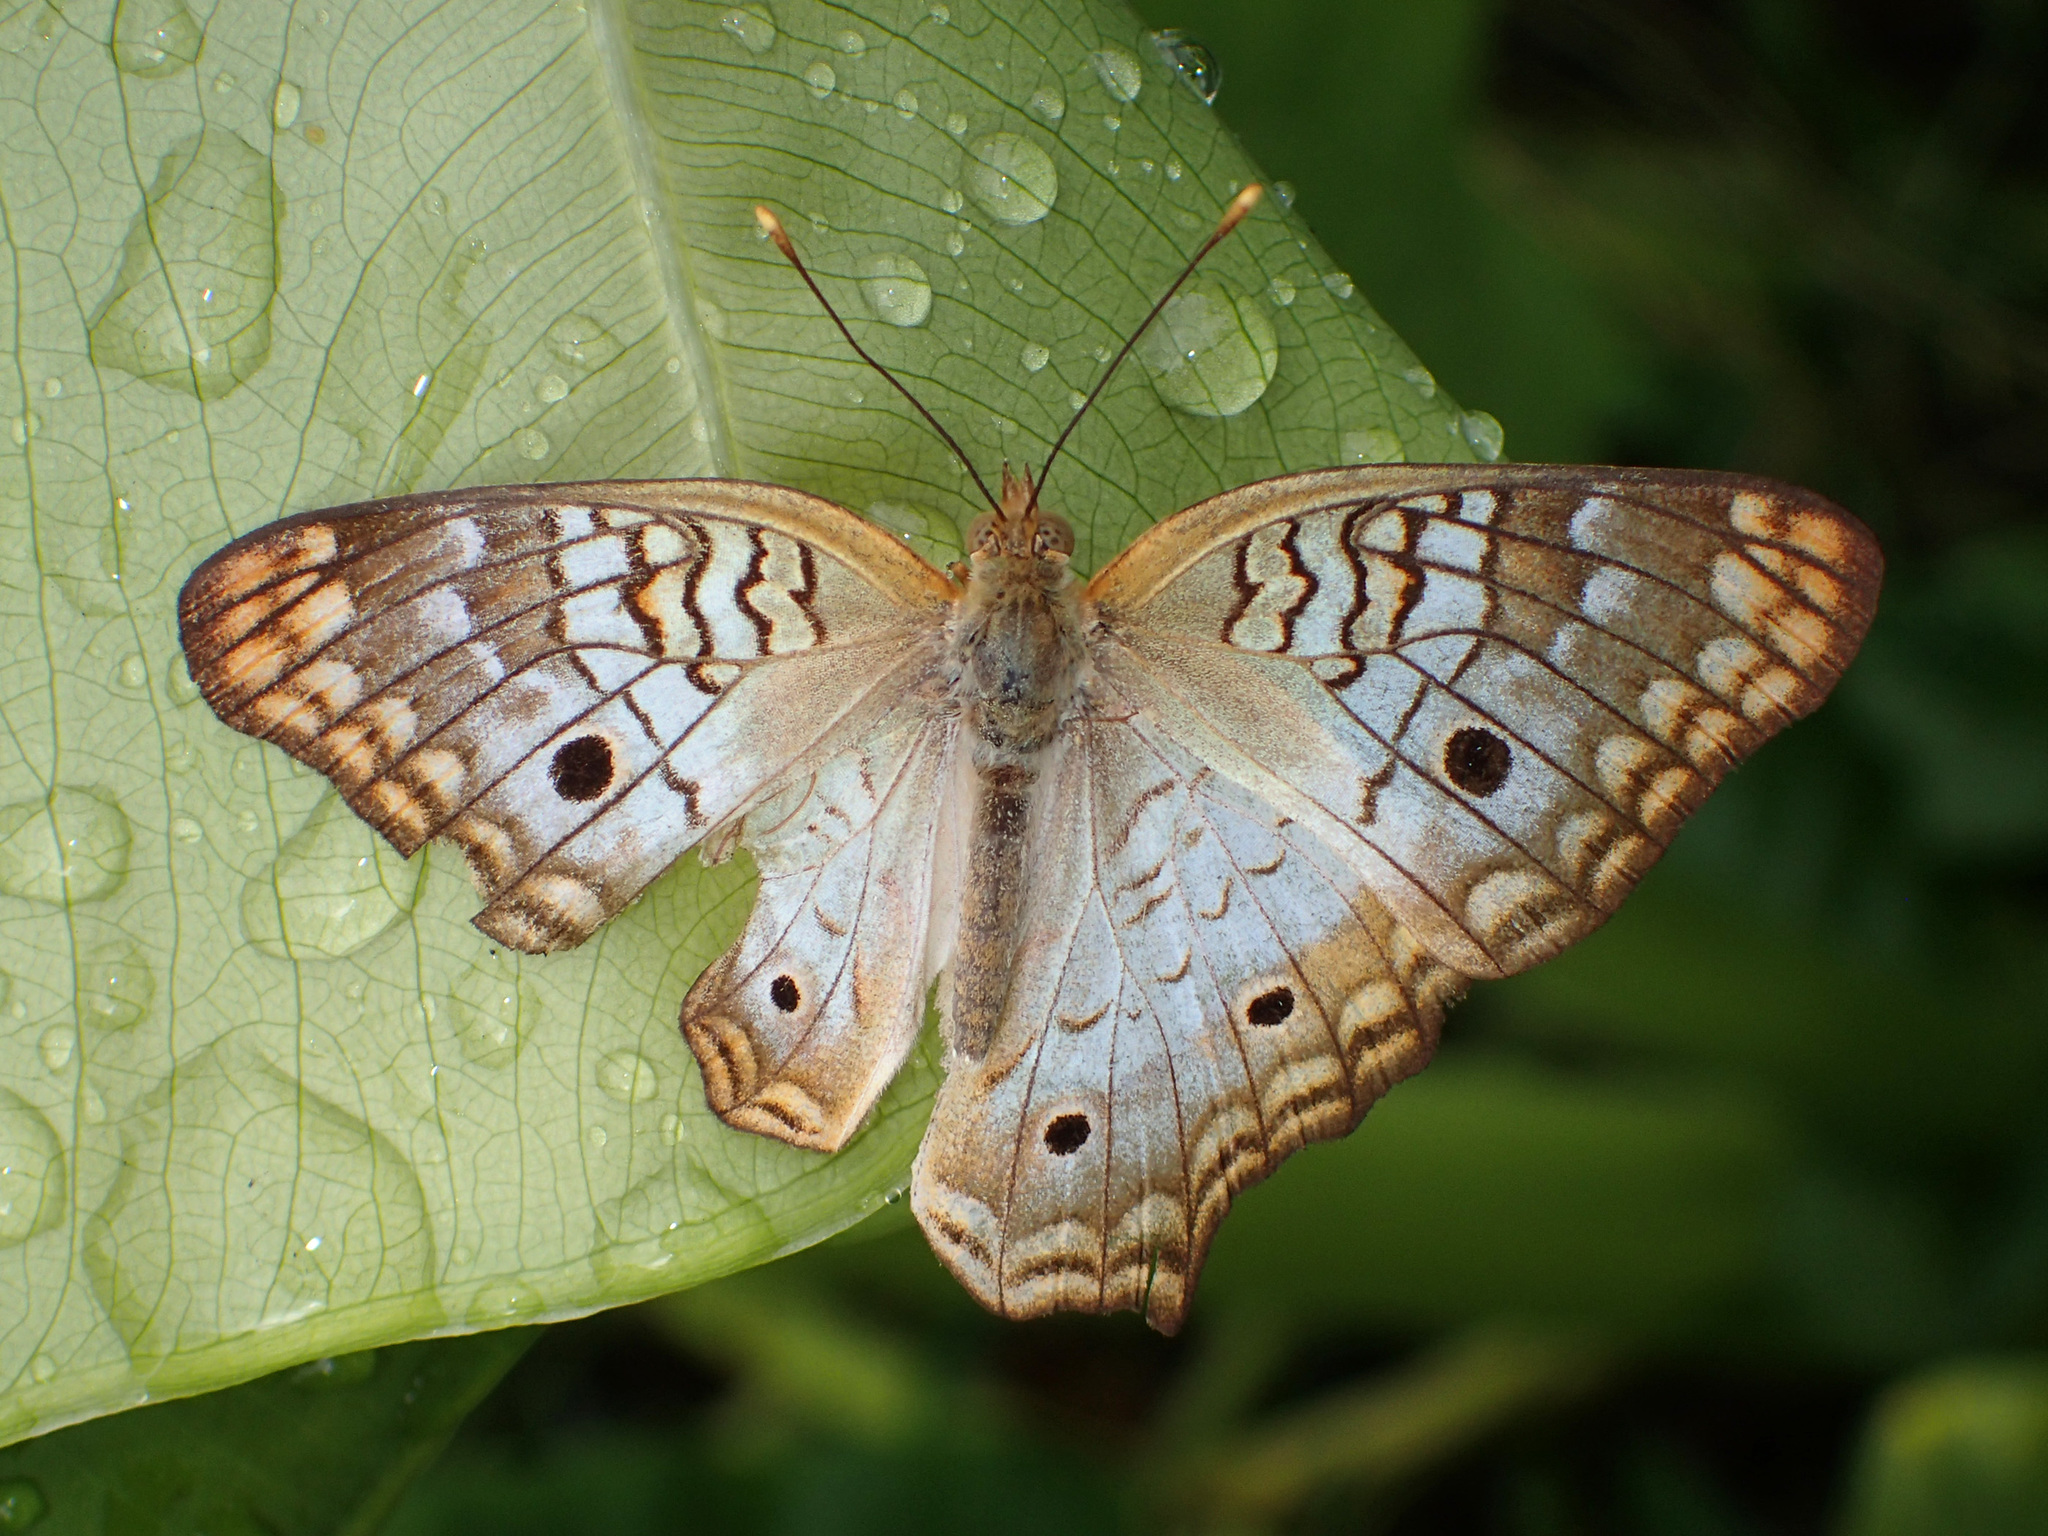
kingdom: Animalia
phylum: Arthropoda
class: Insecta
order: Lepidoptera
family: Nymphalidae
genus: Anartia
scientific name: Anartia jatrophae
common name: White peacock
